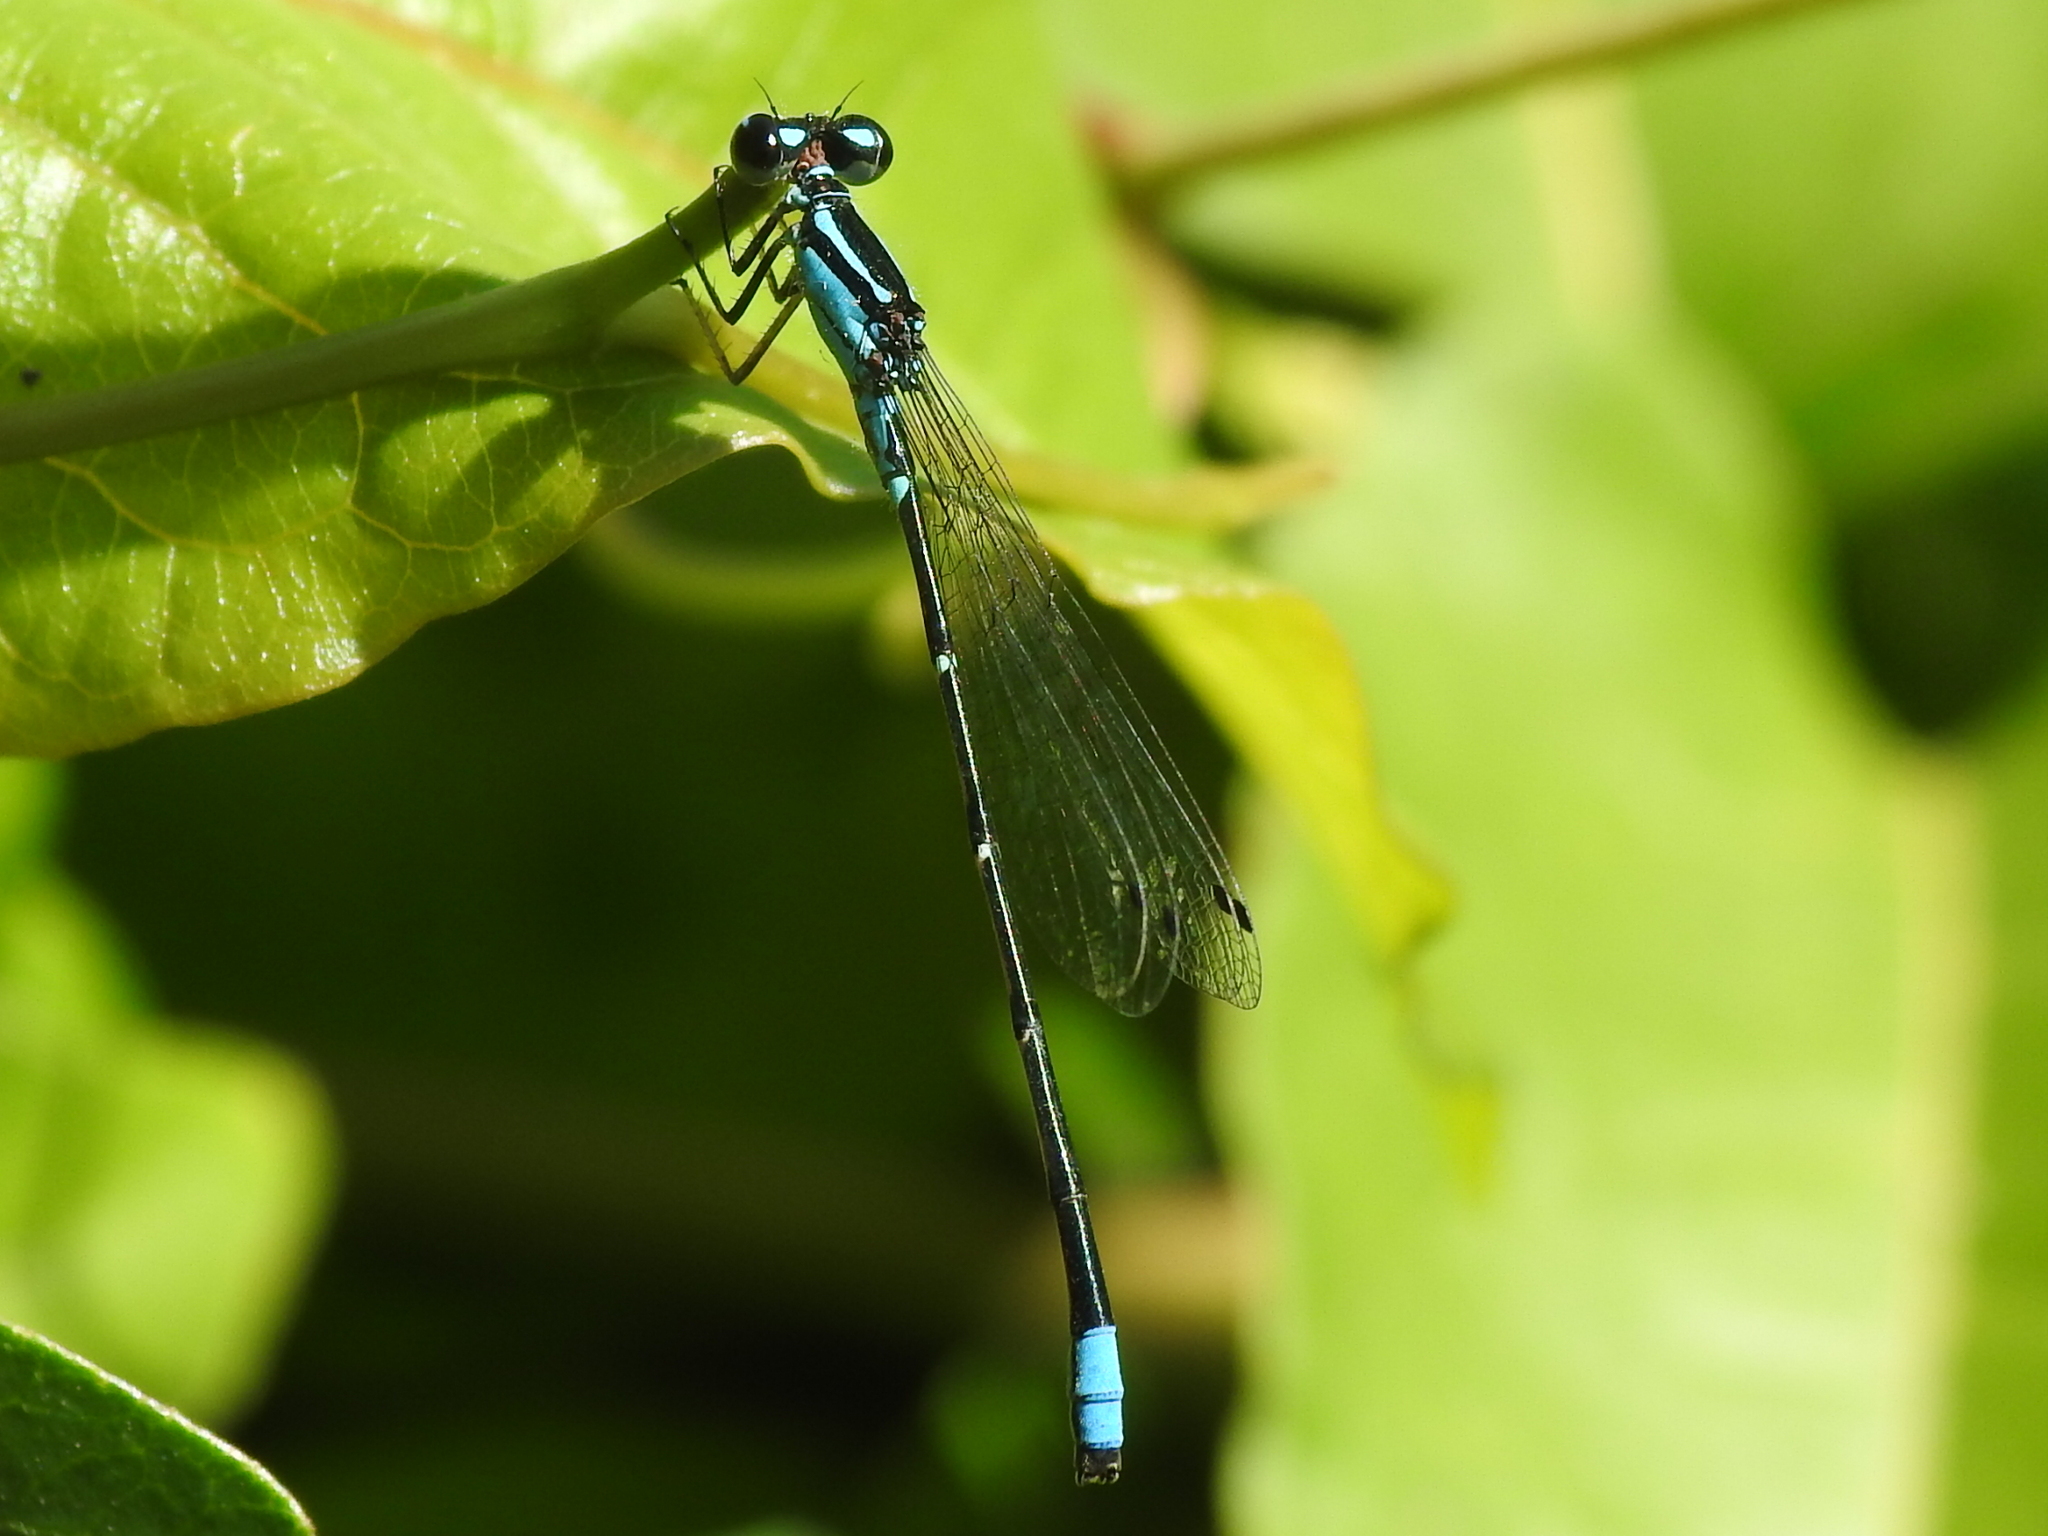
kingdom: Animalia
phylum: Arthropoda
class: Insecta
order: Odonata
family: Coenagrionidae
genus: Enallagma
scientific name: Enallagma divagans
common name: Turquoise bluet
